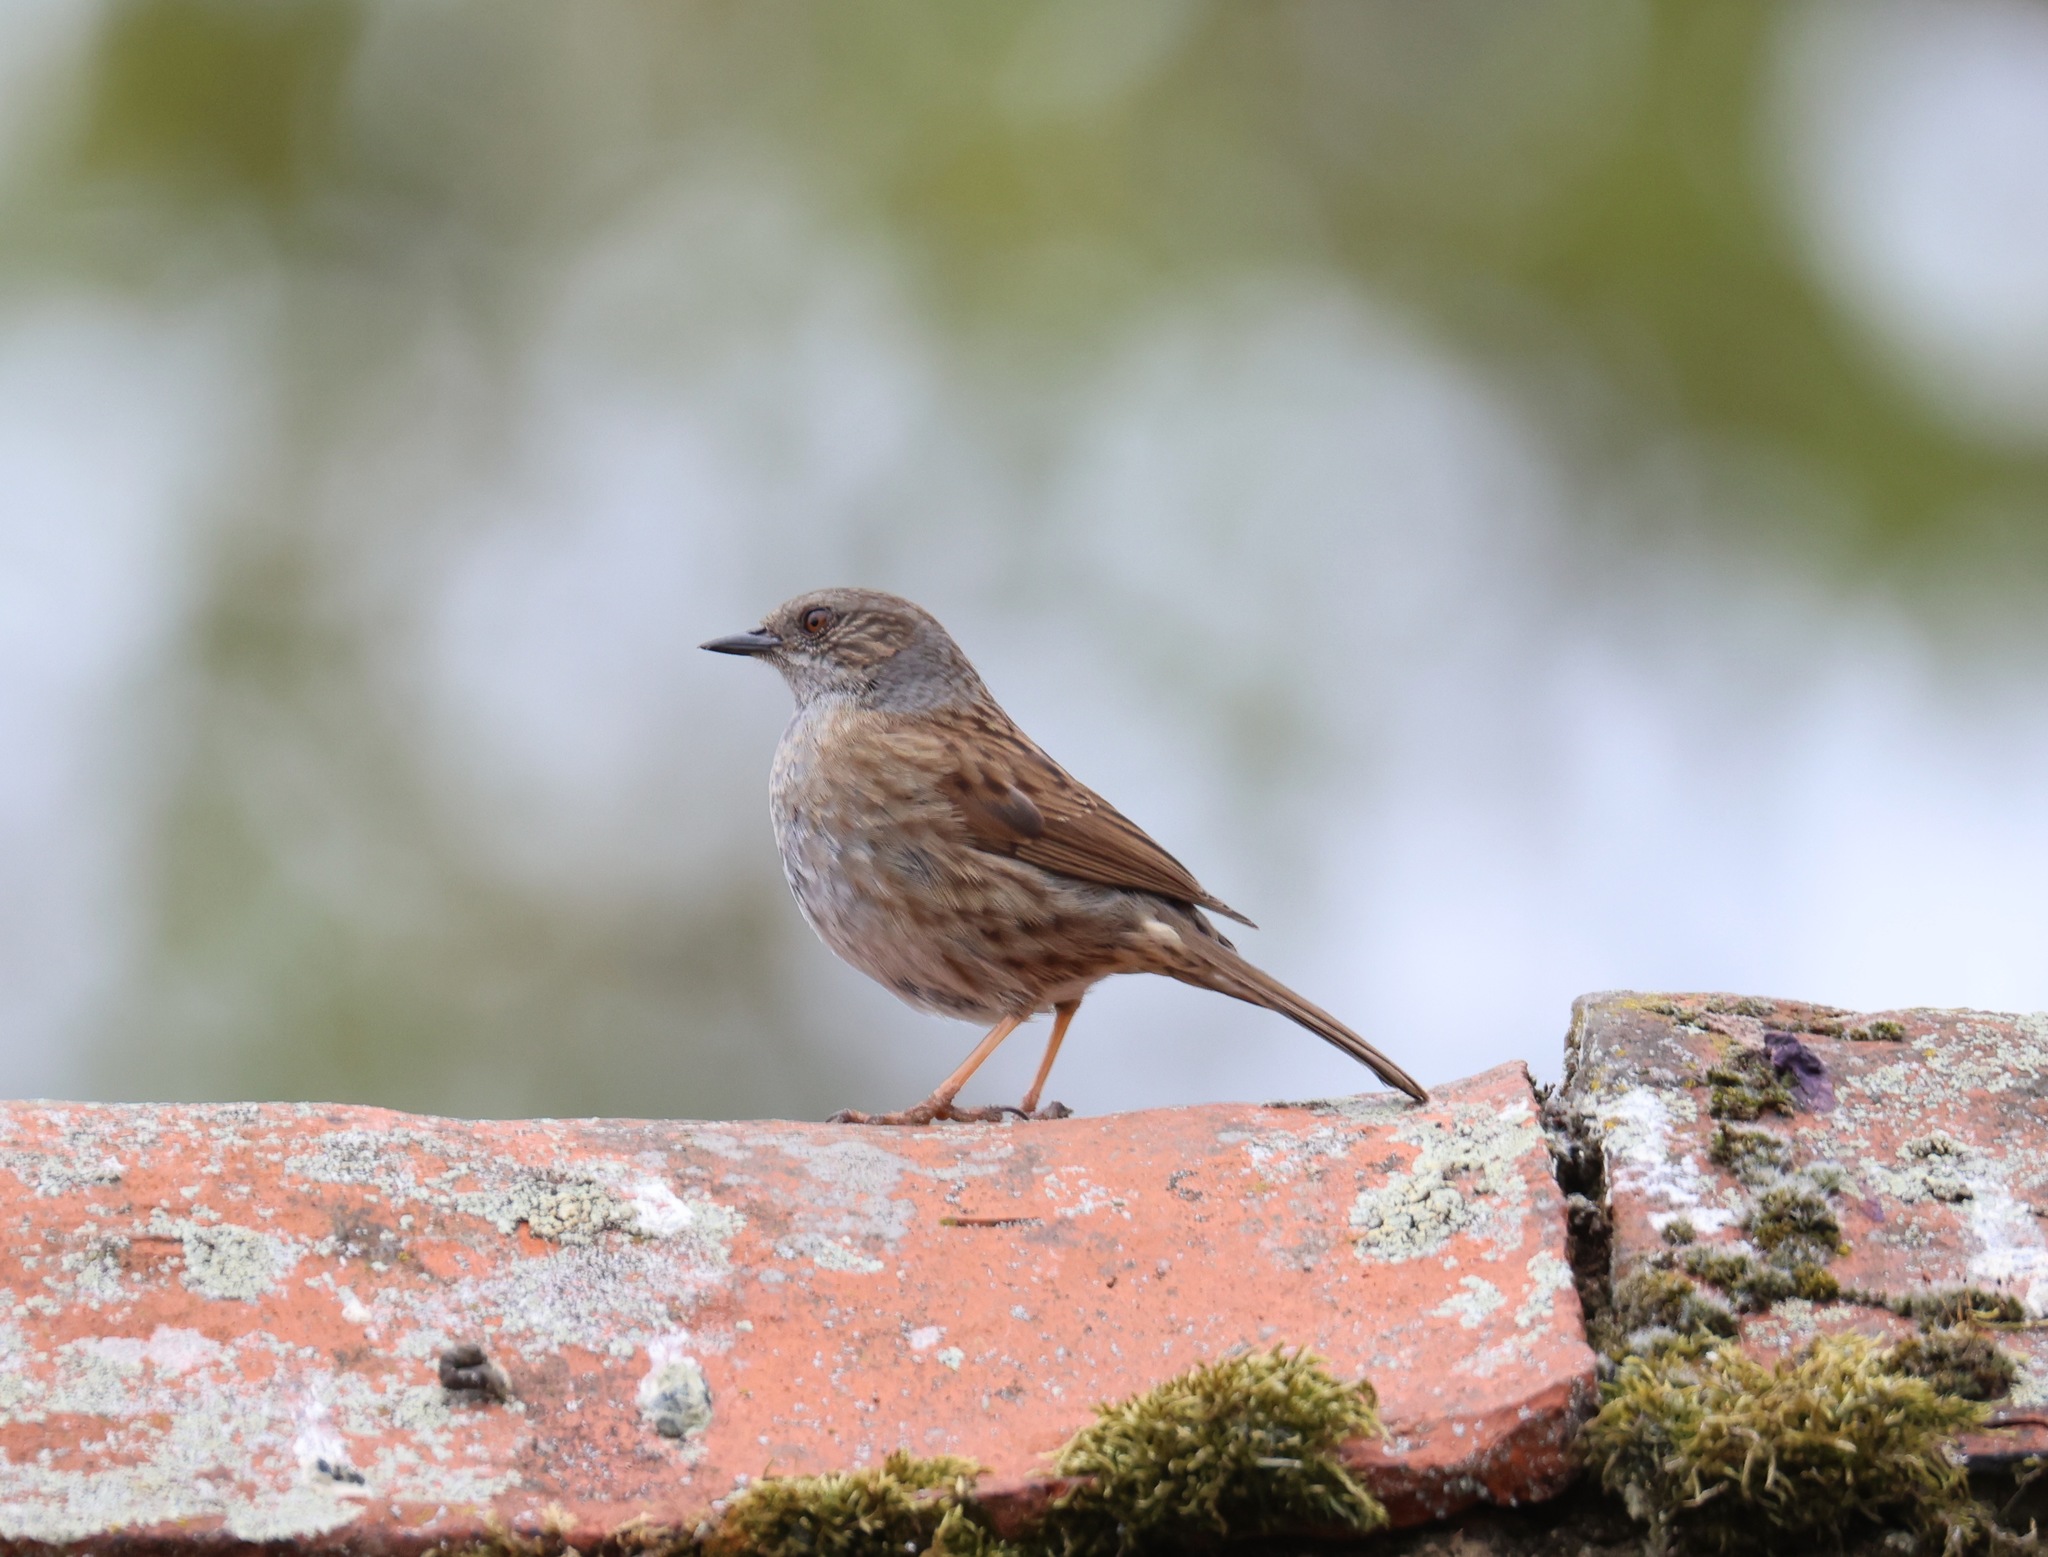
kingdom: Animalia
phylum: Chordata
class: Aves
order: Passeriformes
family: Prunellidae
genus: Prunella
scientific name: Prunella modularis
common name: Dunnock
